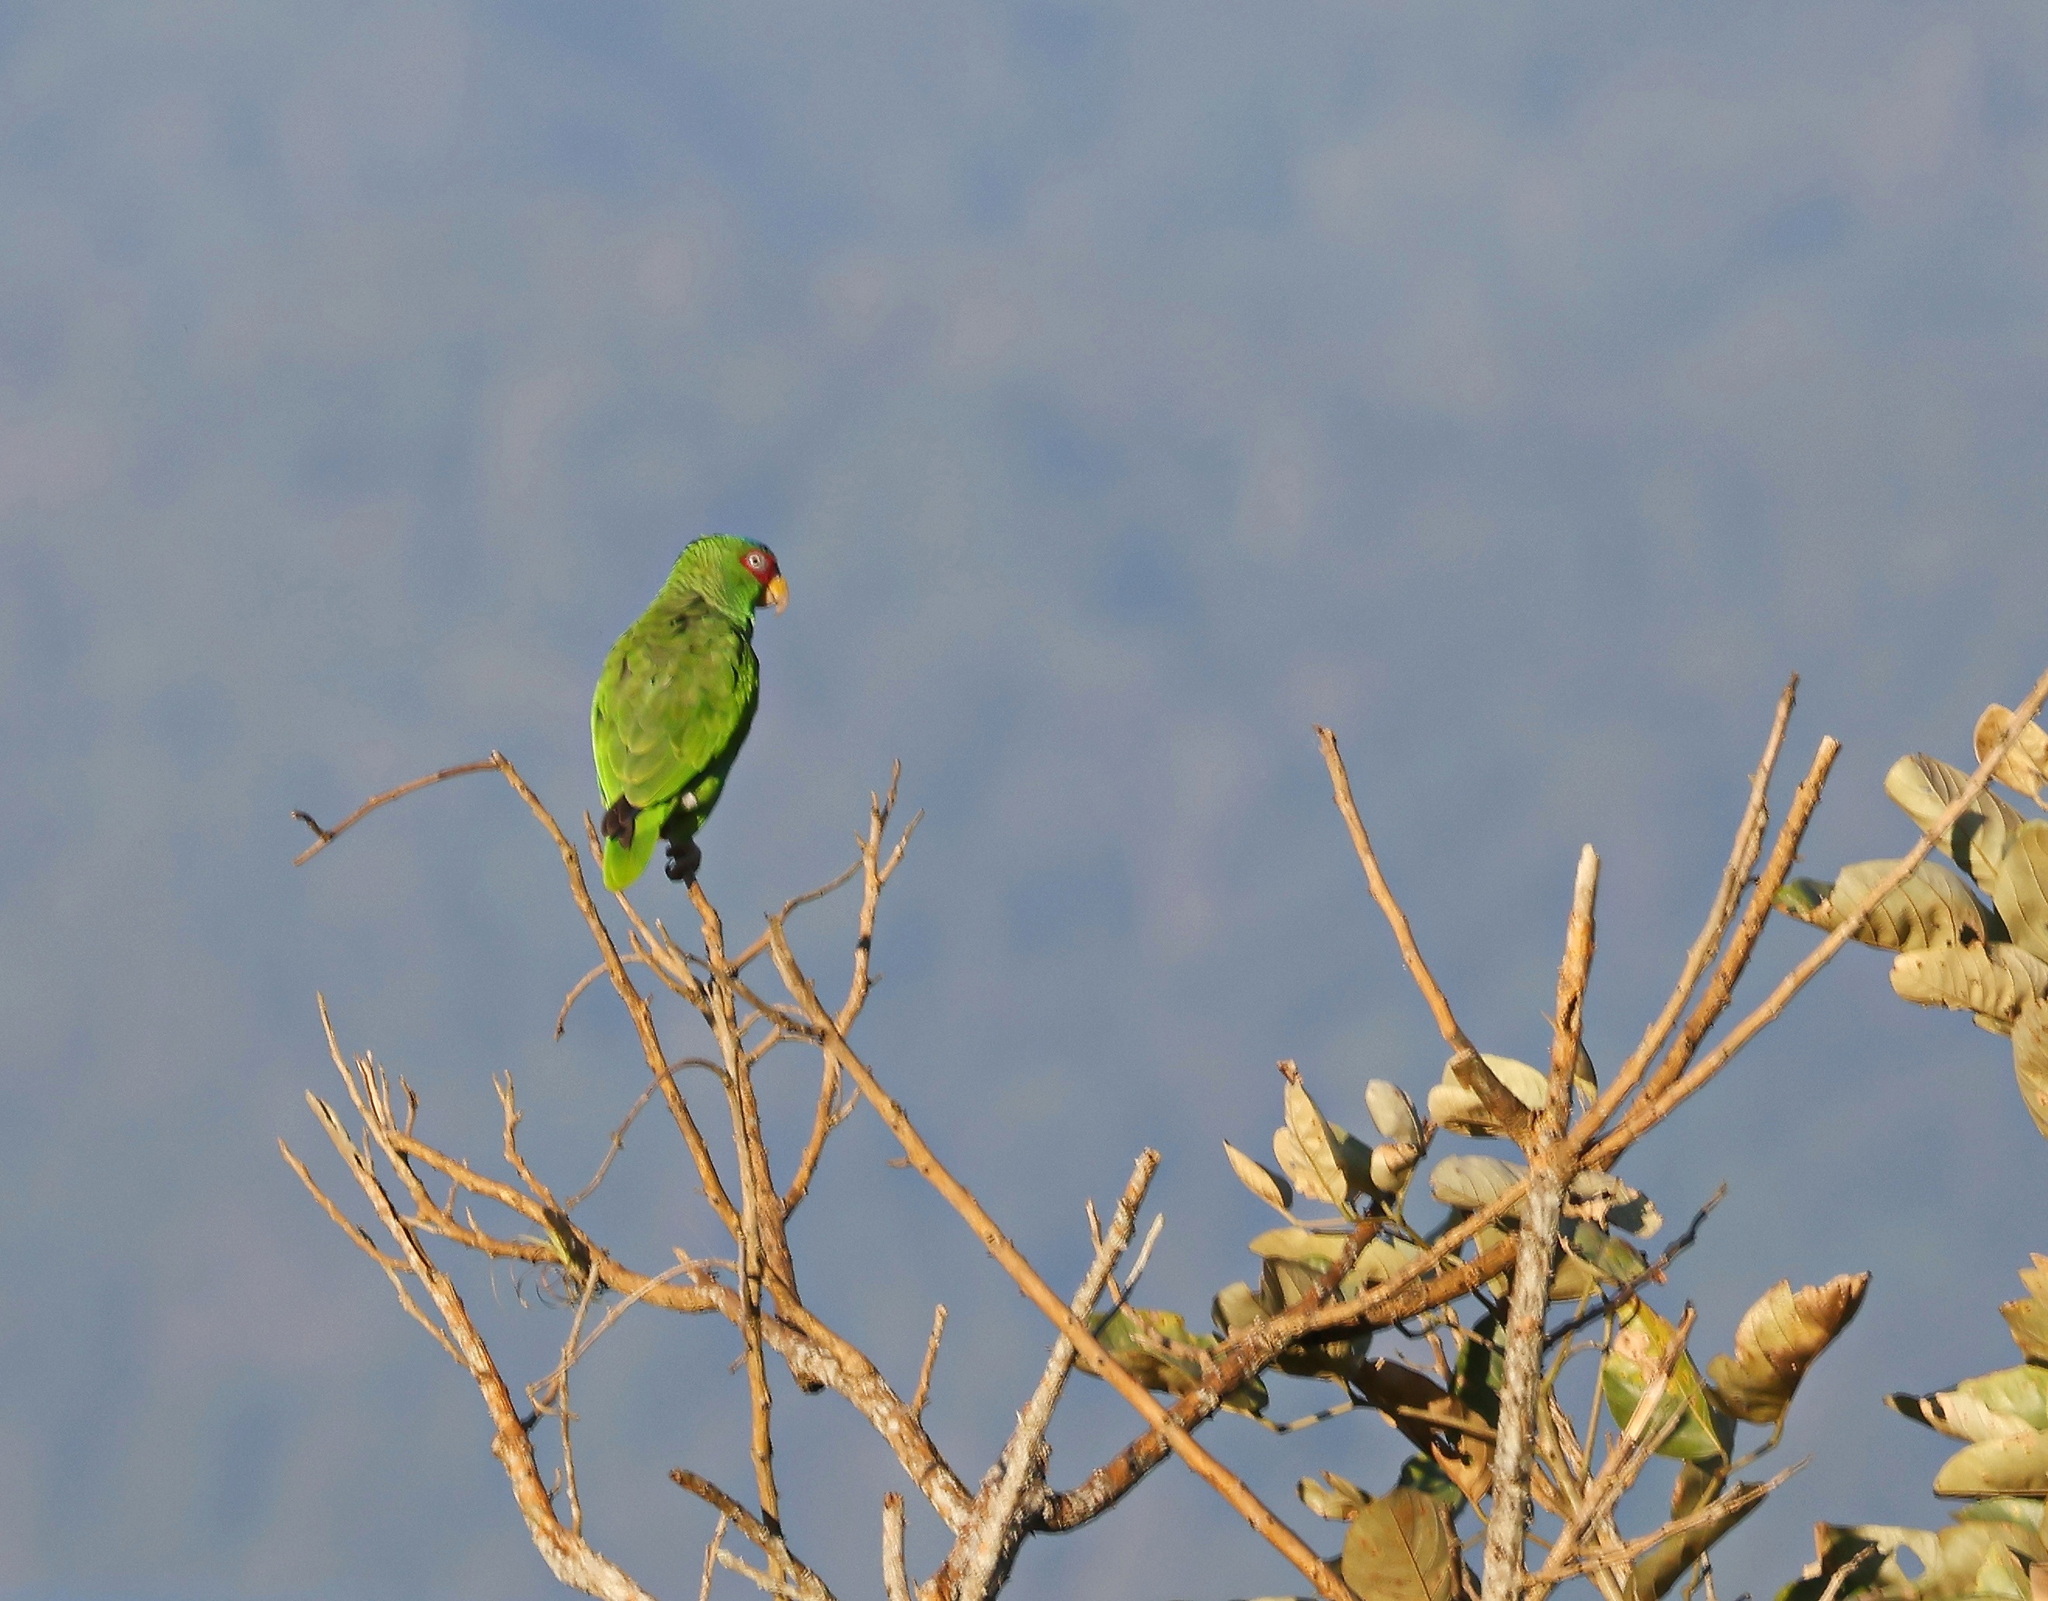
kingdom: Animalia
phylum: Chordata
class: Aves
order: Psittaciformes
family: Psittacidae
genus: Amazona
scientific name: Amazona albifrons
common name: White-fronted amazon
